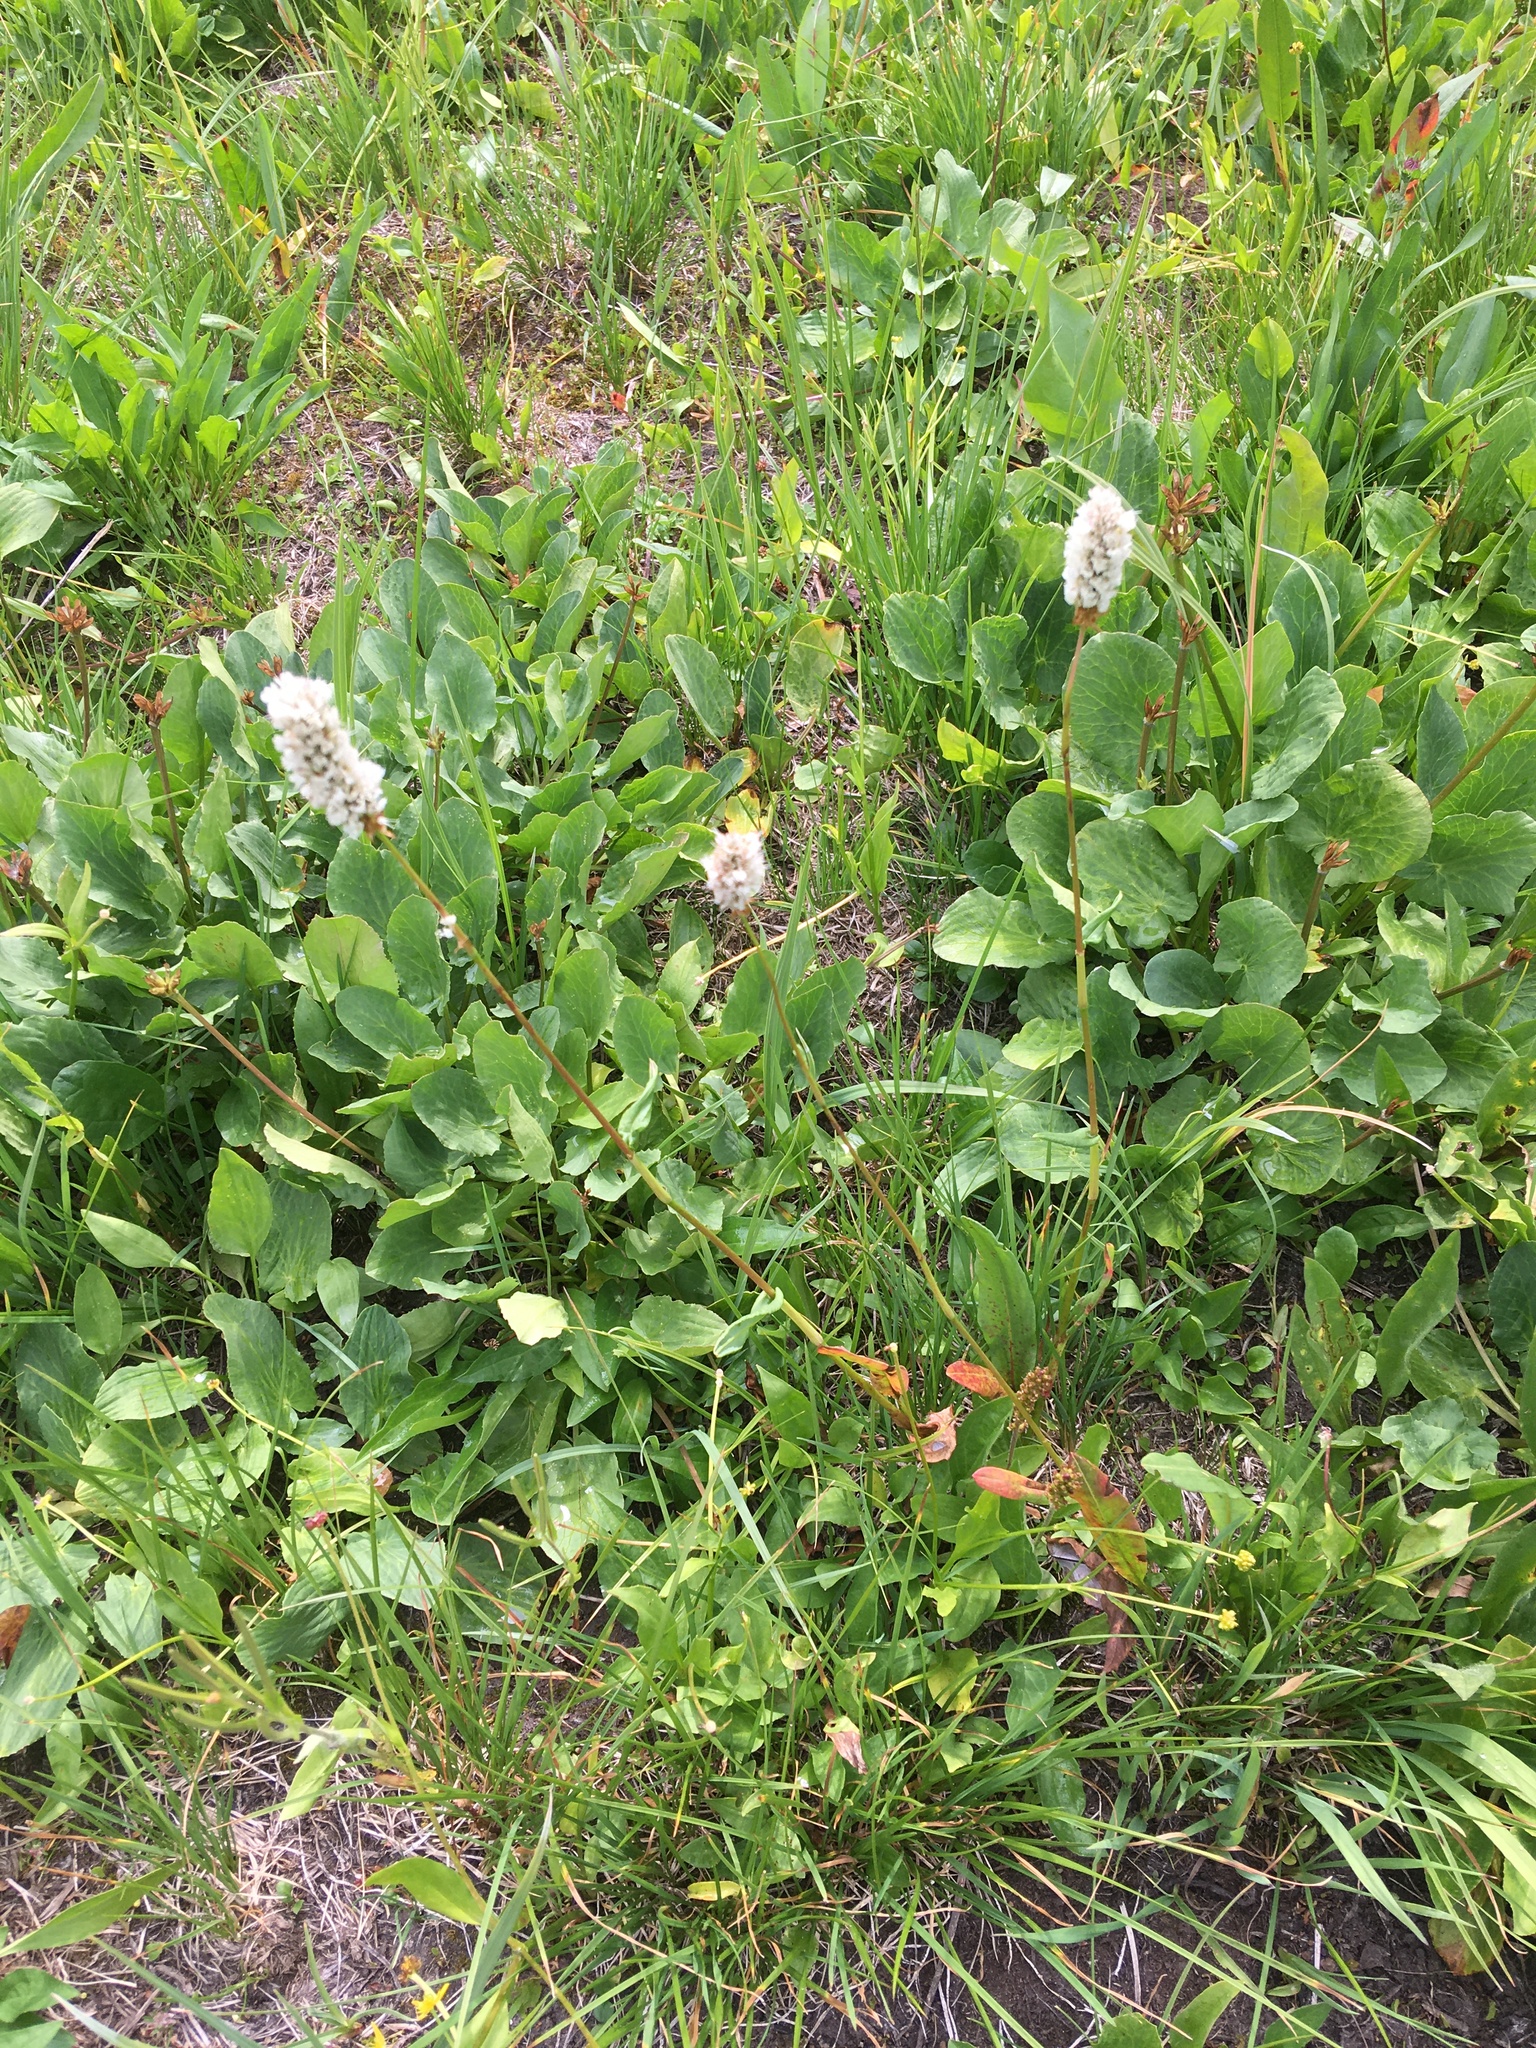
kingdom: Plantae
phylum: Tracheophyta
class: Magnoliopsida
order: Caryophyllales
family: Polygonaceae
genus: Bistorta
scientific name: Bistorta bistortoides
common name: American bistort
